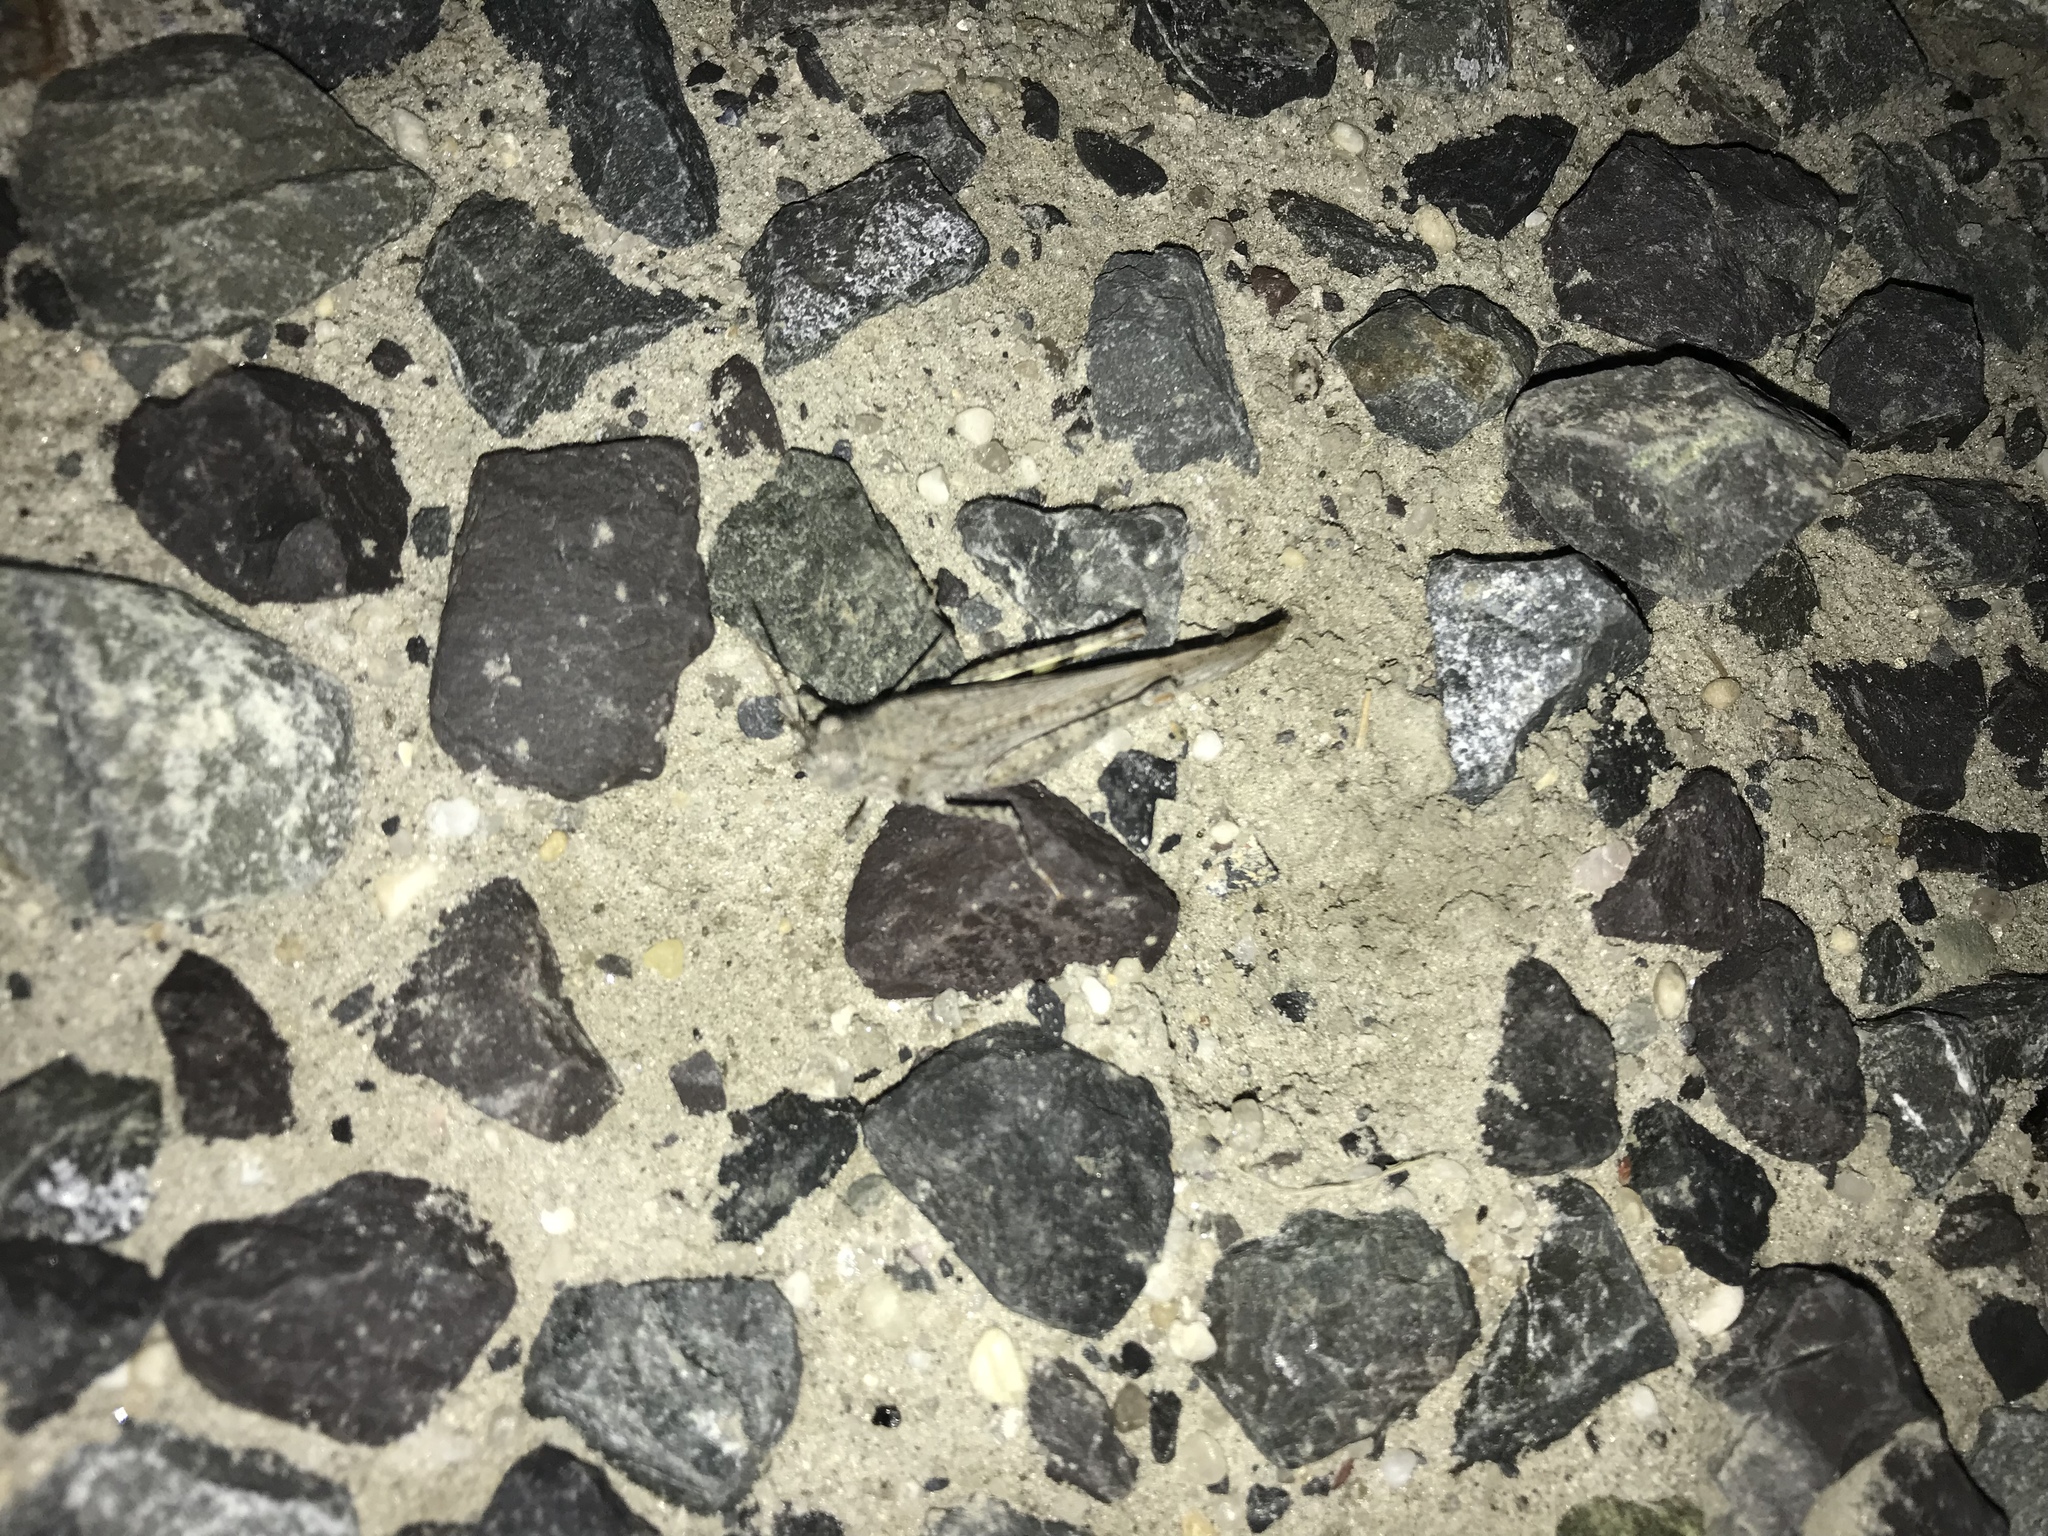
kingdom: Animalia
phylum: Arthropoda
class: Insecta
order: Orthoptera
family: Acrididae
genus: Trimerotropis
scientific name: Trimerotropis maritima
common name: Seaside locust
